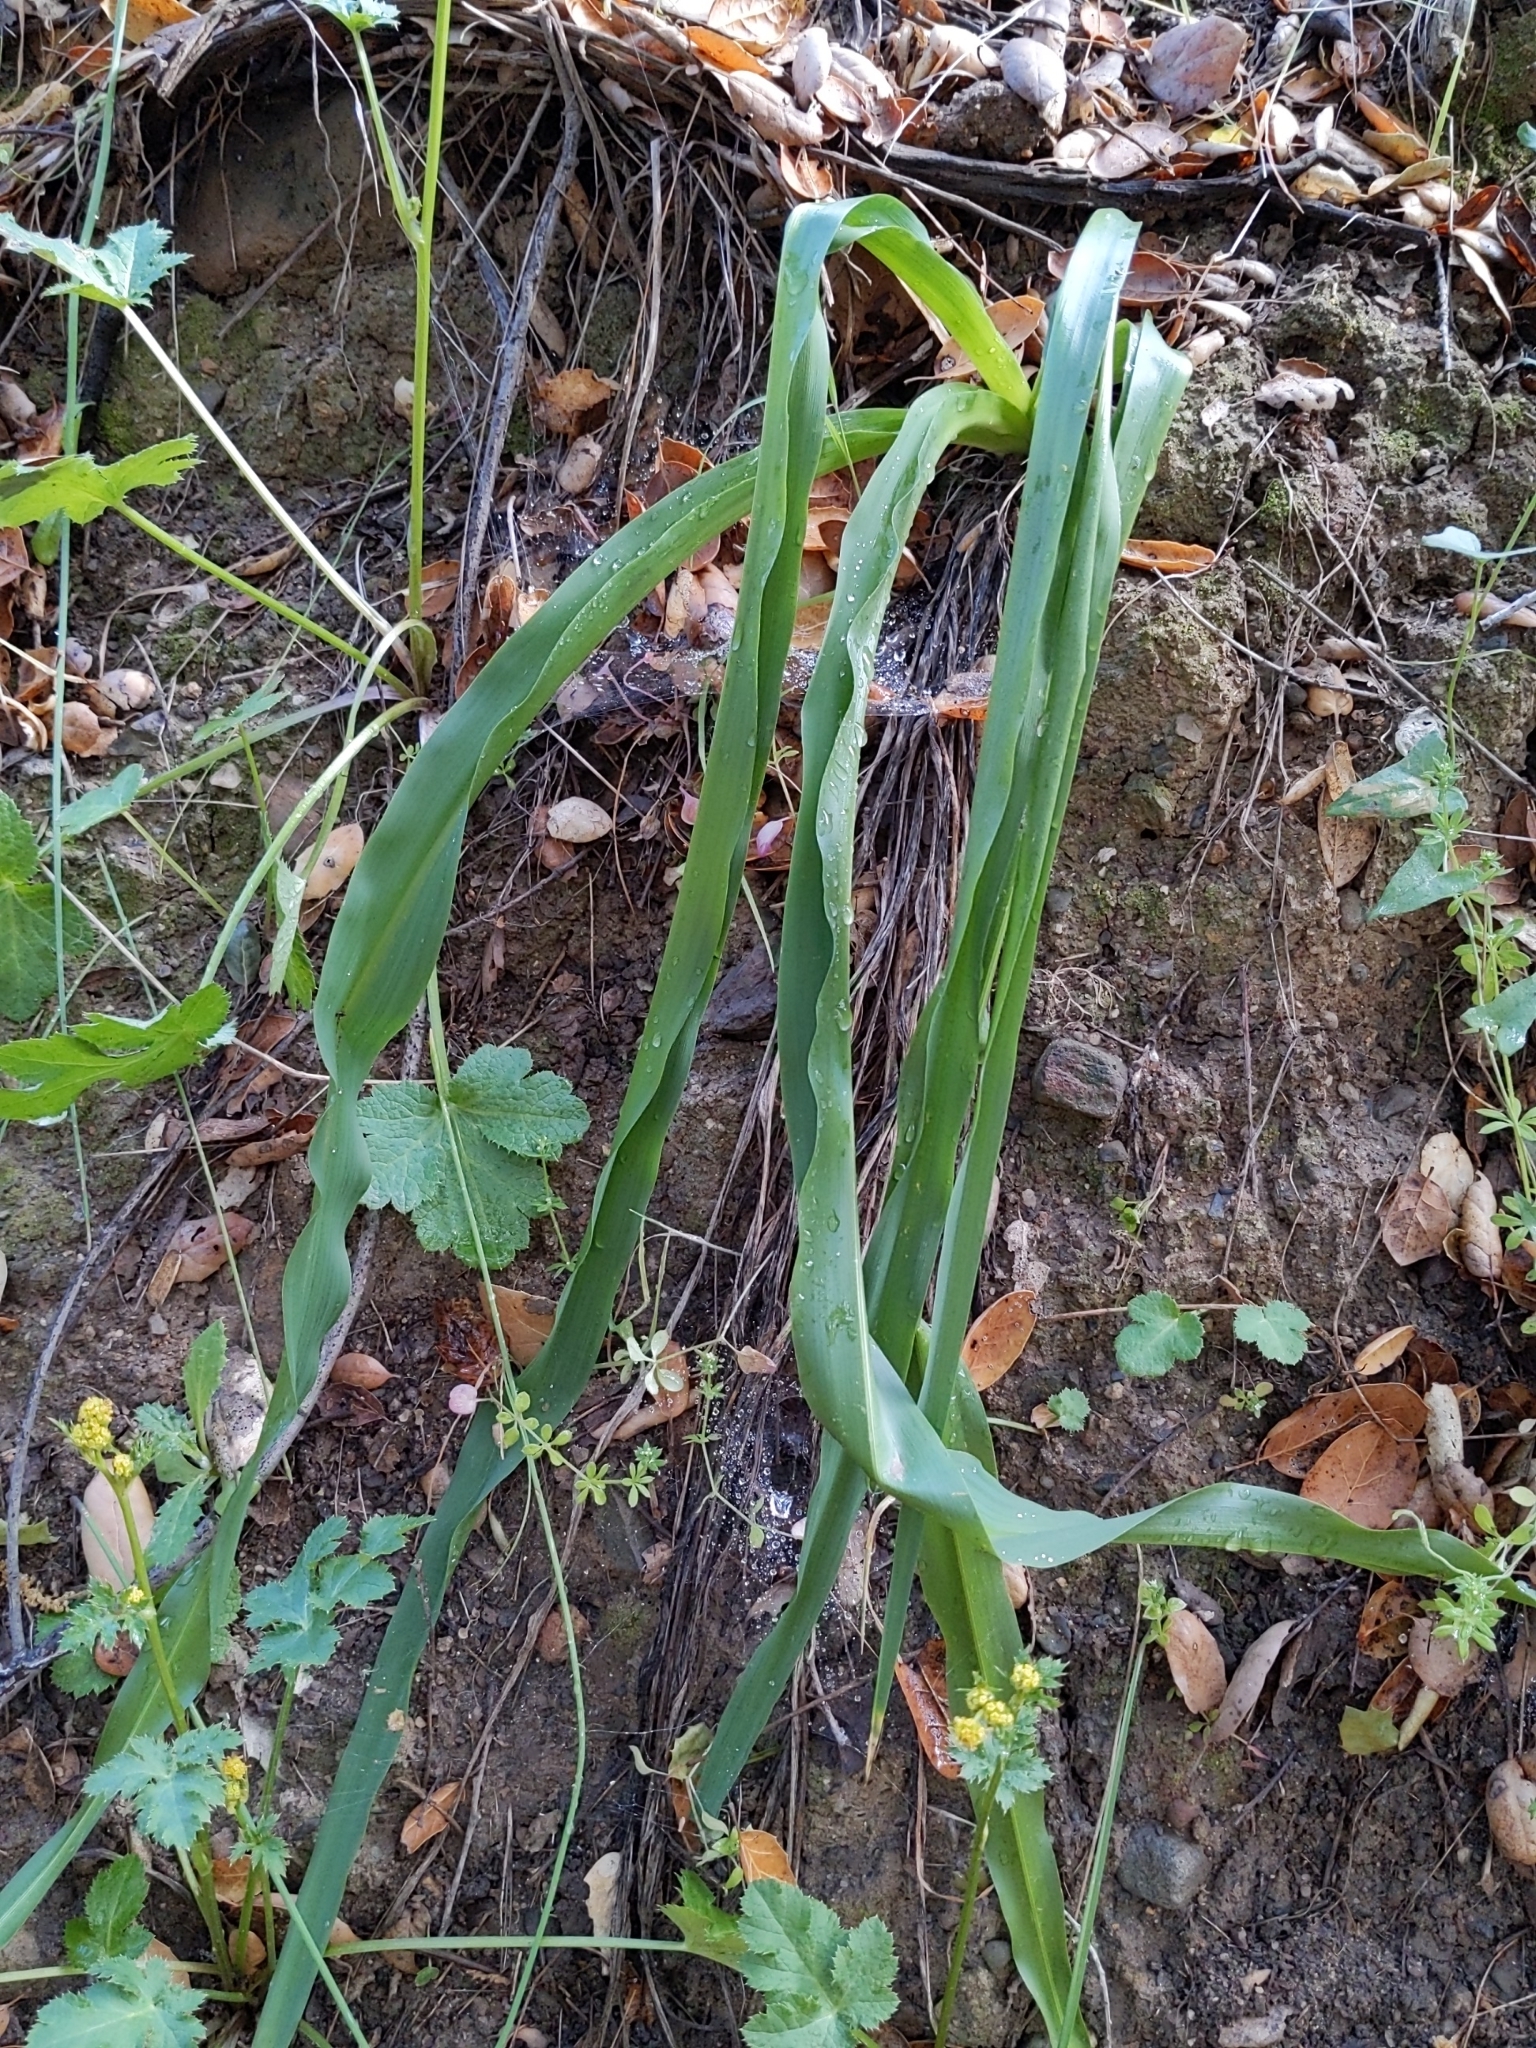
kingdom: Plantae
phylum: Tracheophyta
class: Liliopsida
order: Asparagales
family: Asparagaceae
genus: Chlorogalum
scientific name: Chlorogalum pomeridianum
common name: Amole
